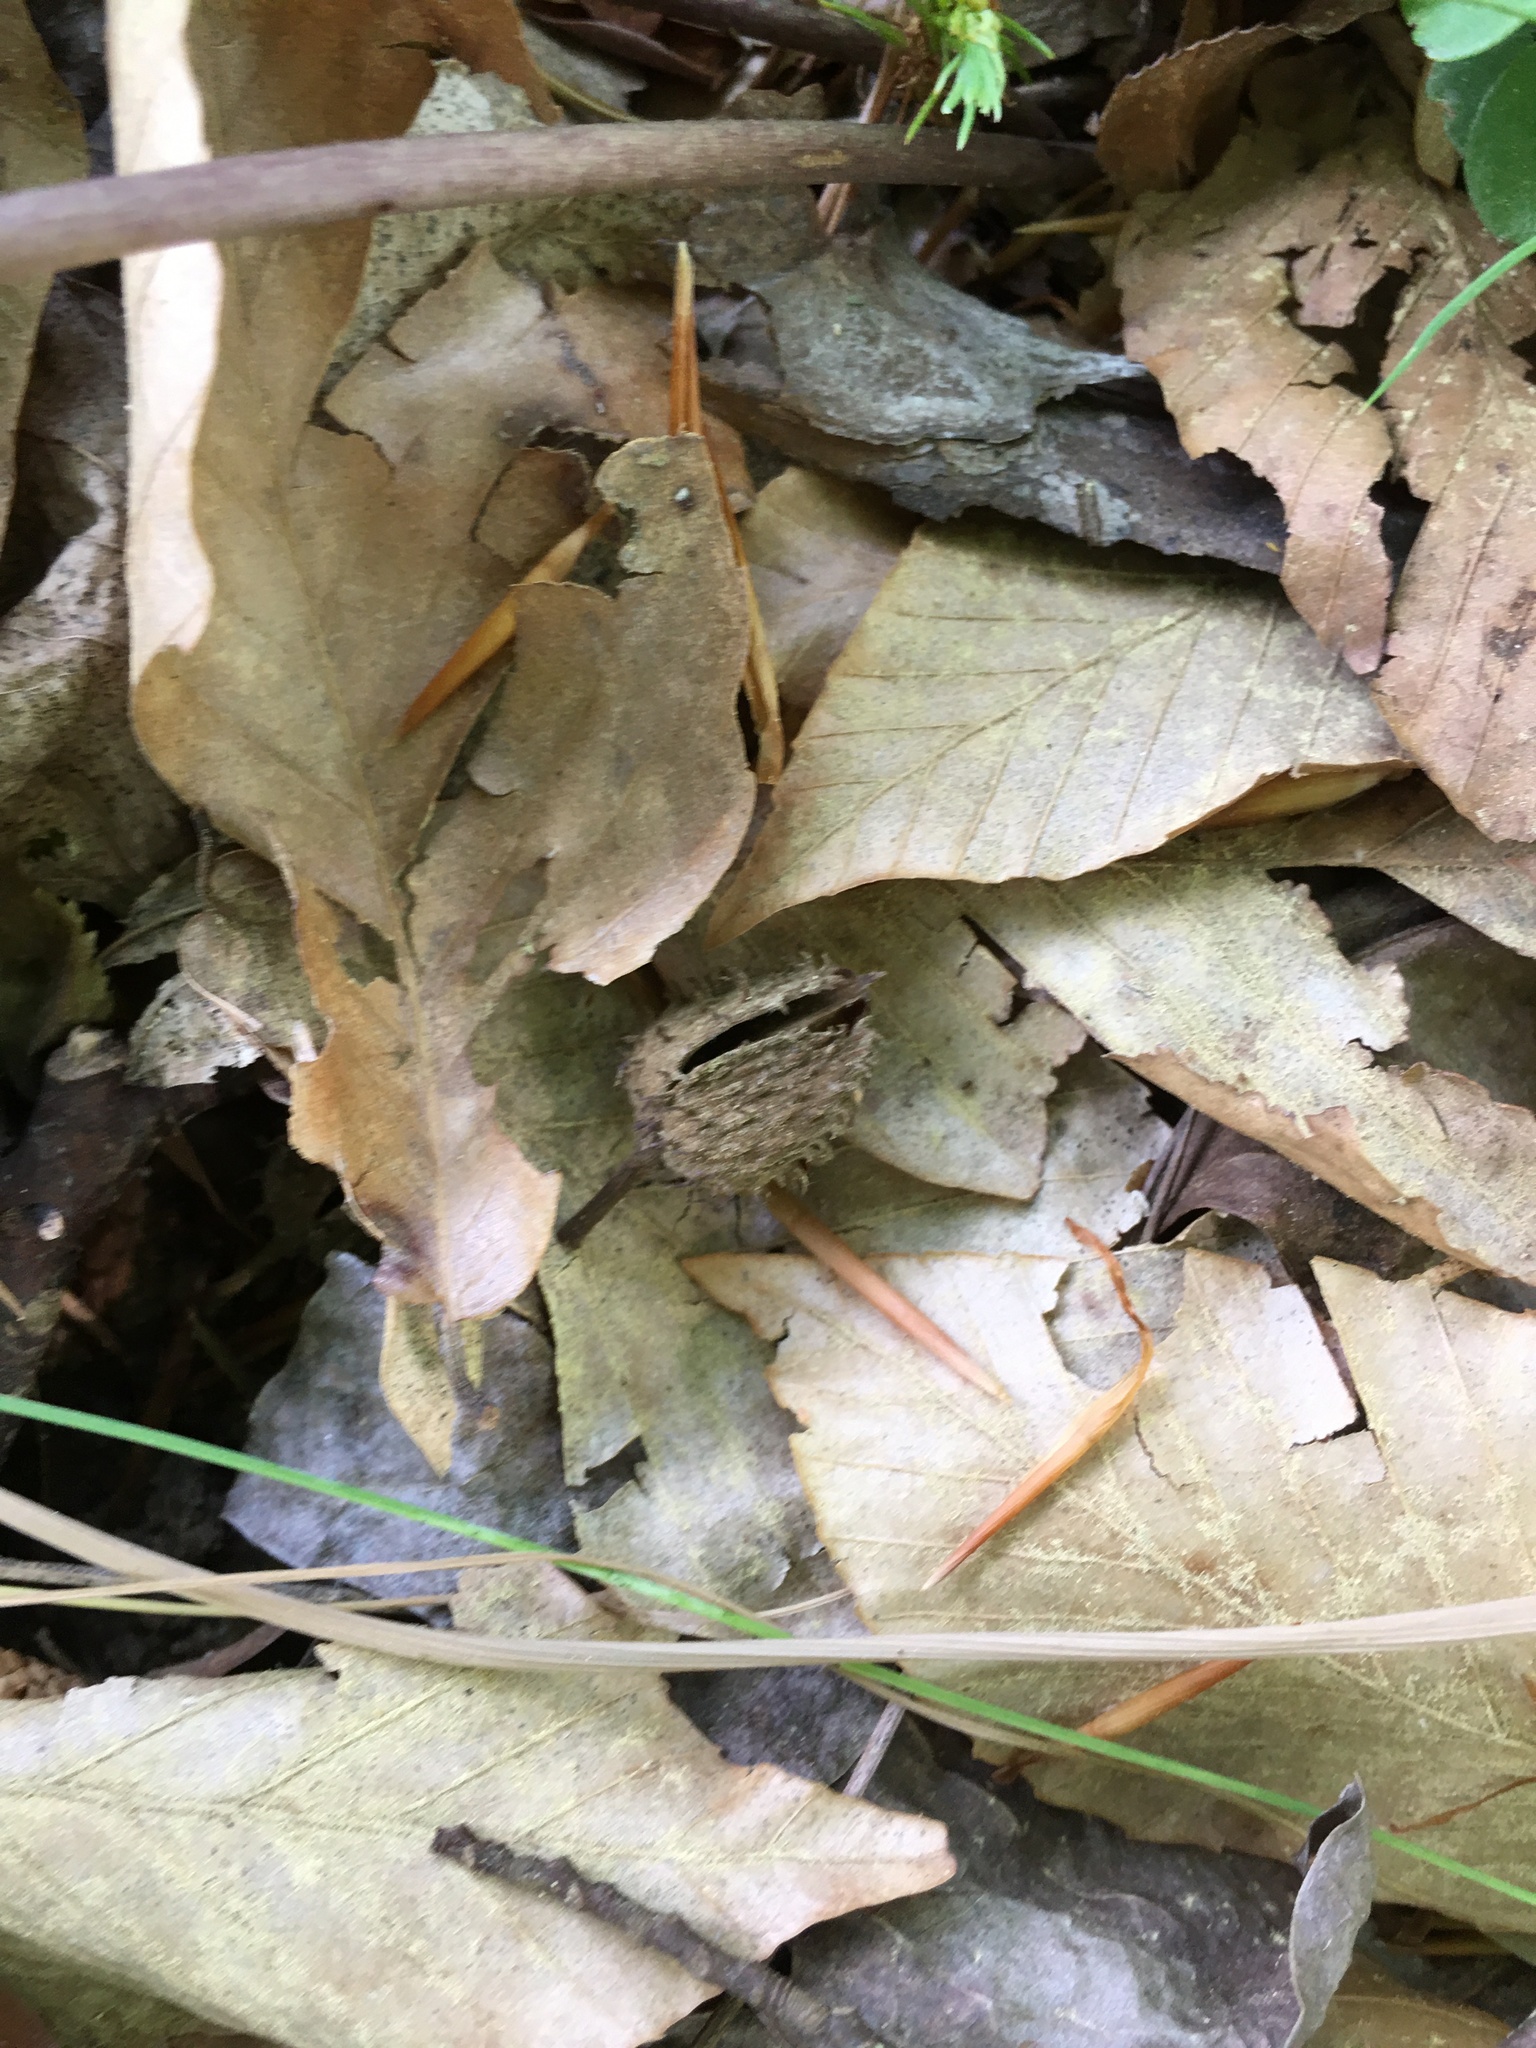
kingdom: Plantae
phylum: Tracheophyta
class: Magnoliopsida
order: Fagales
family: Fagaceae
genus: Fagus
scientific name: Fagus grandifolia
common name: American beech
